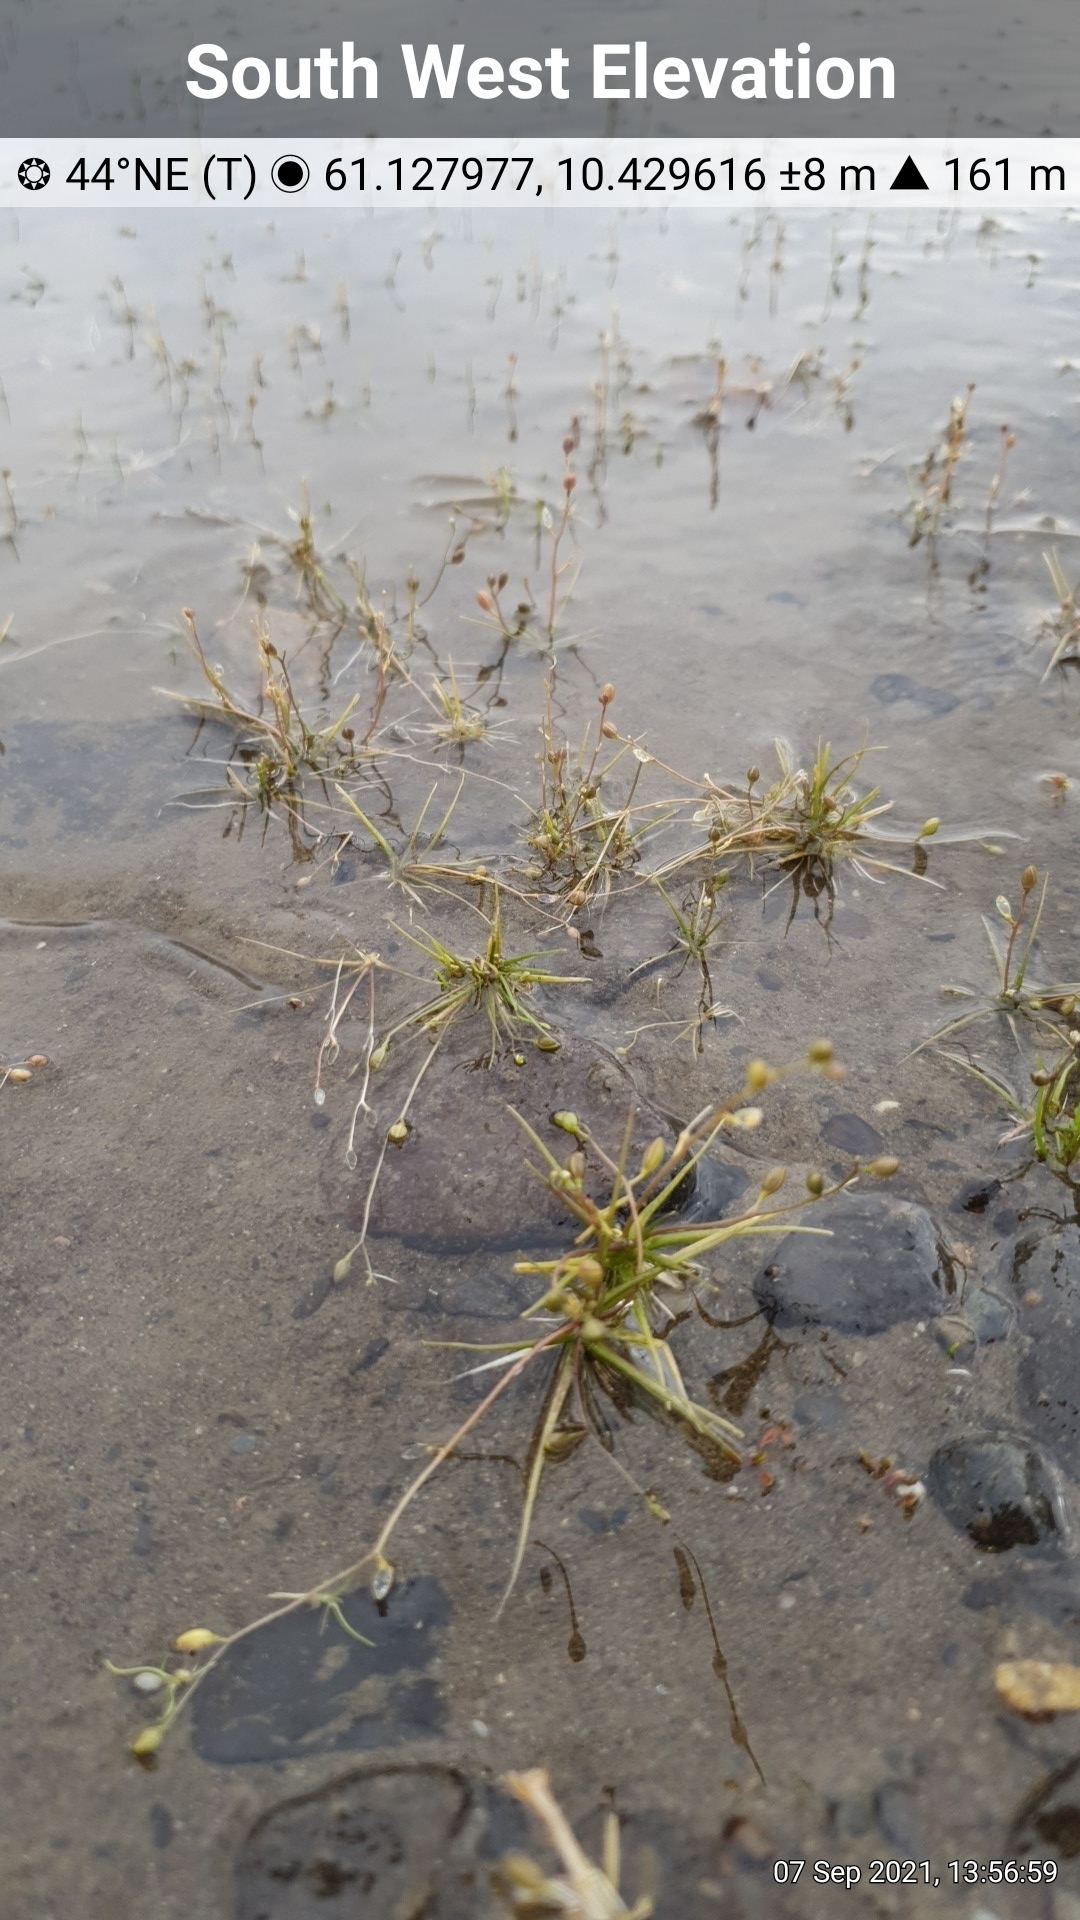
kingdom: Plantae
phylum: Tracheophyta
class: Magnoliopsida
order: Brassicales
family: Brassicaceae
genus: Subularia
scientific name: Subularia aquatica
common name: Awlwort
